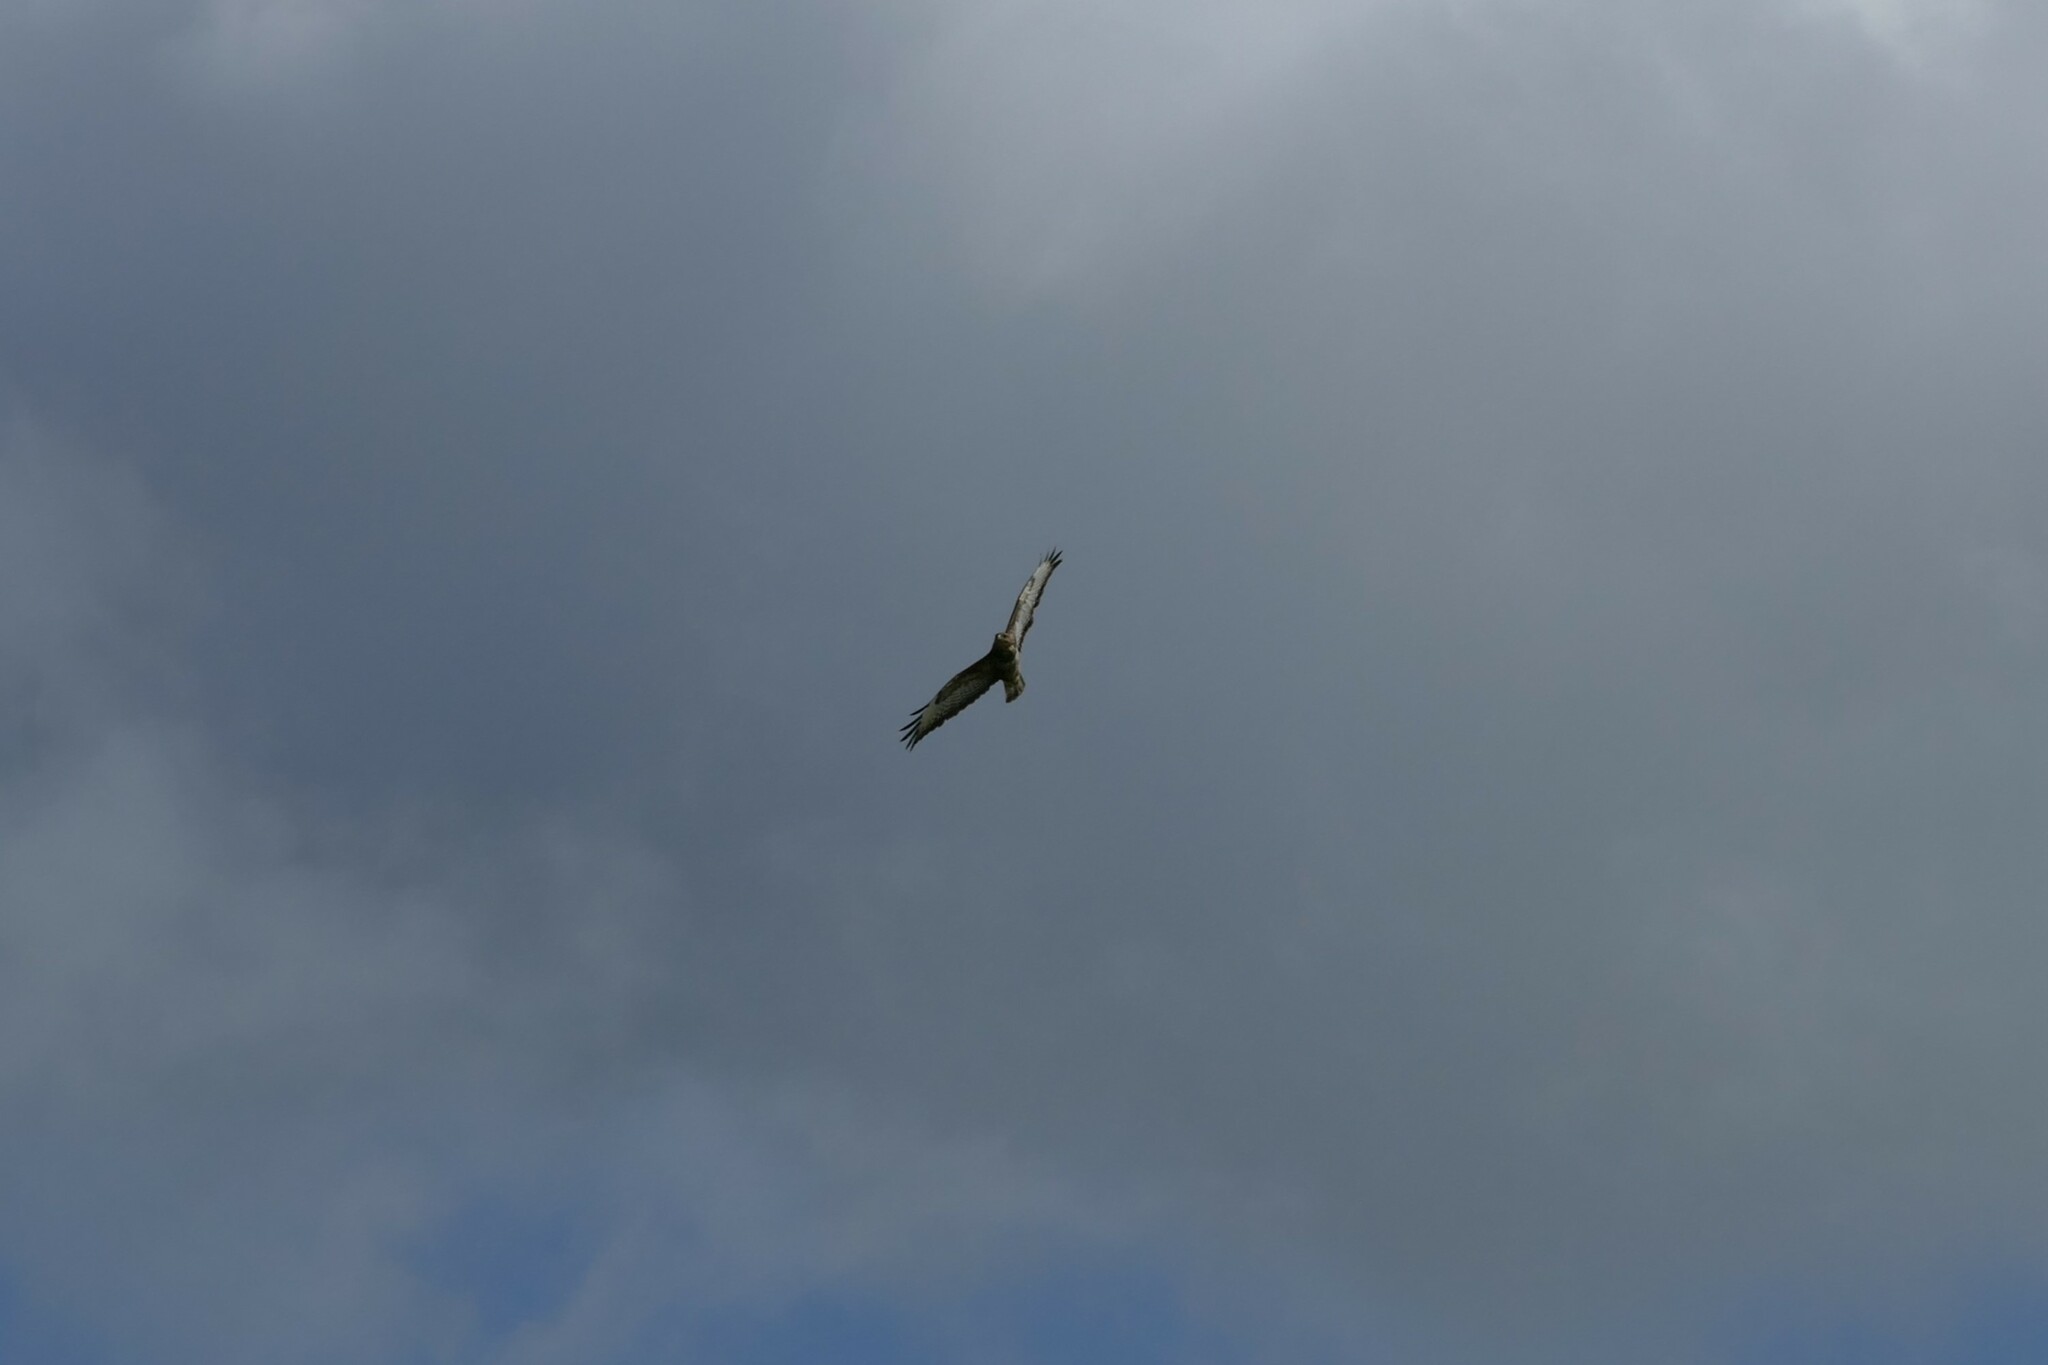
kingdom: Animalia
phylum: Chordata
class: Aves
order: Accipitriformes
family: Accipitridae
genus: Buteo
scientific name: Buteo buteo
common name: Common buzzard
